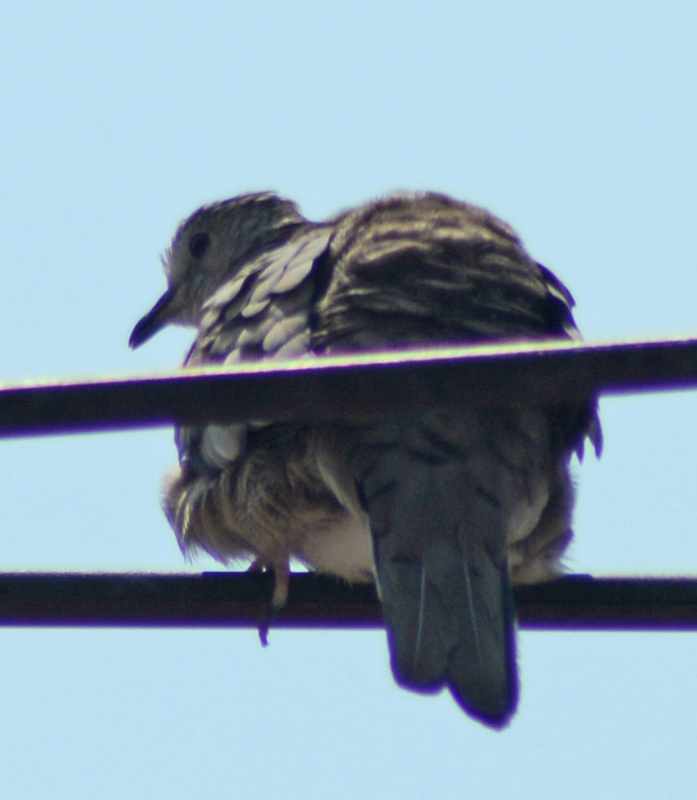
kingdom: Animalia
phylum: Chordata
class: Aves
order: Columbiformes
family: Columbidae
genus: Columbina
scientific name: Columbina inca
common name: Inca dove
